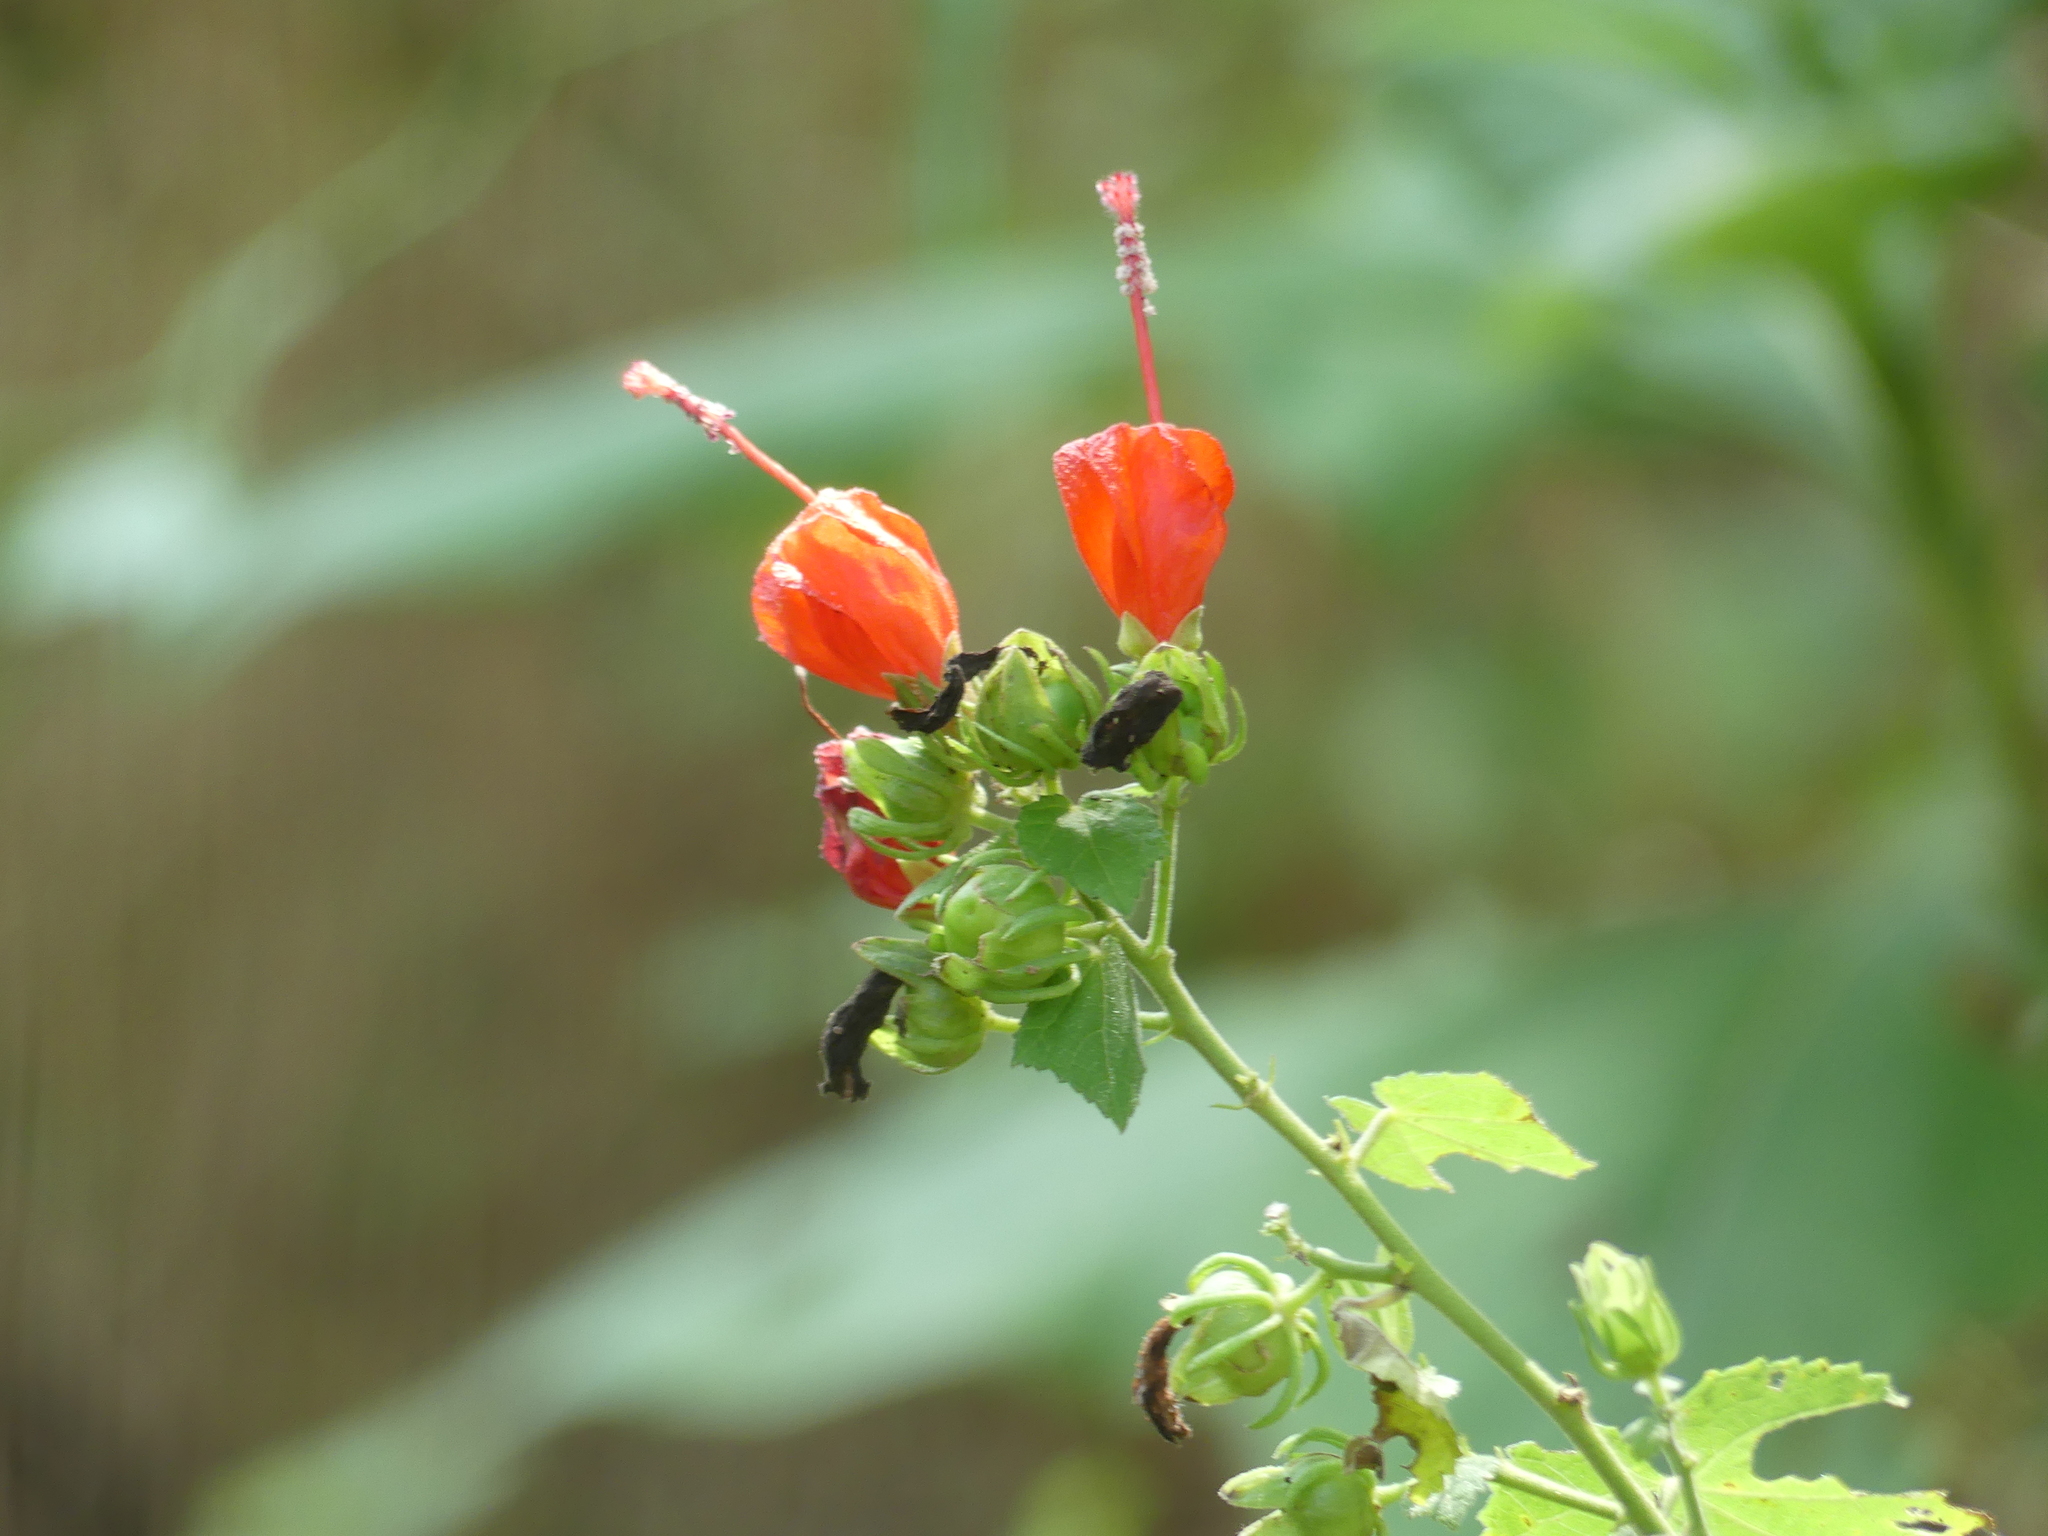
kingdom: Plantae
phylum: Tracheophyta
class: Magnoliopsida
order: Malvales
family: Malvaceae
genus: Malvaviscus
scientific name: Malvaviscus arboreus
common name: Wax mallow
